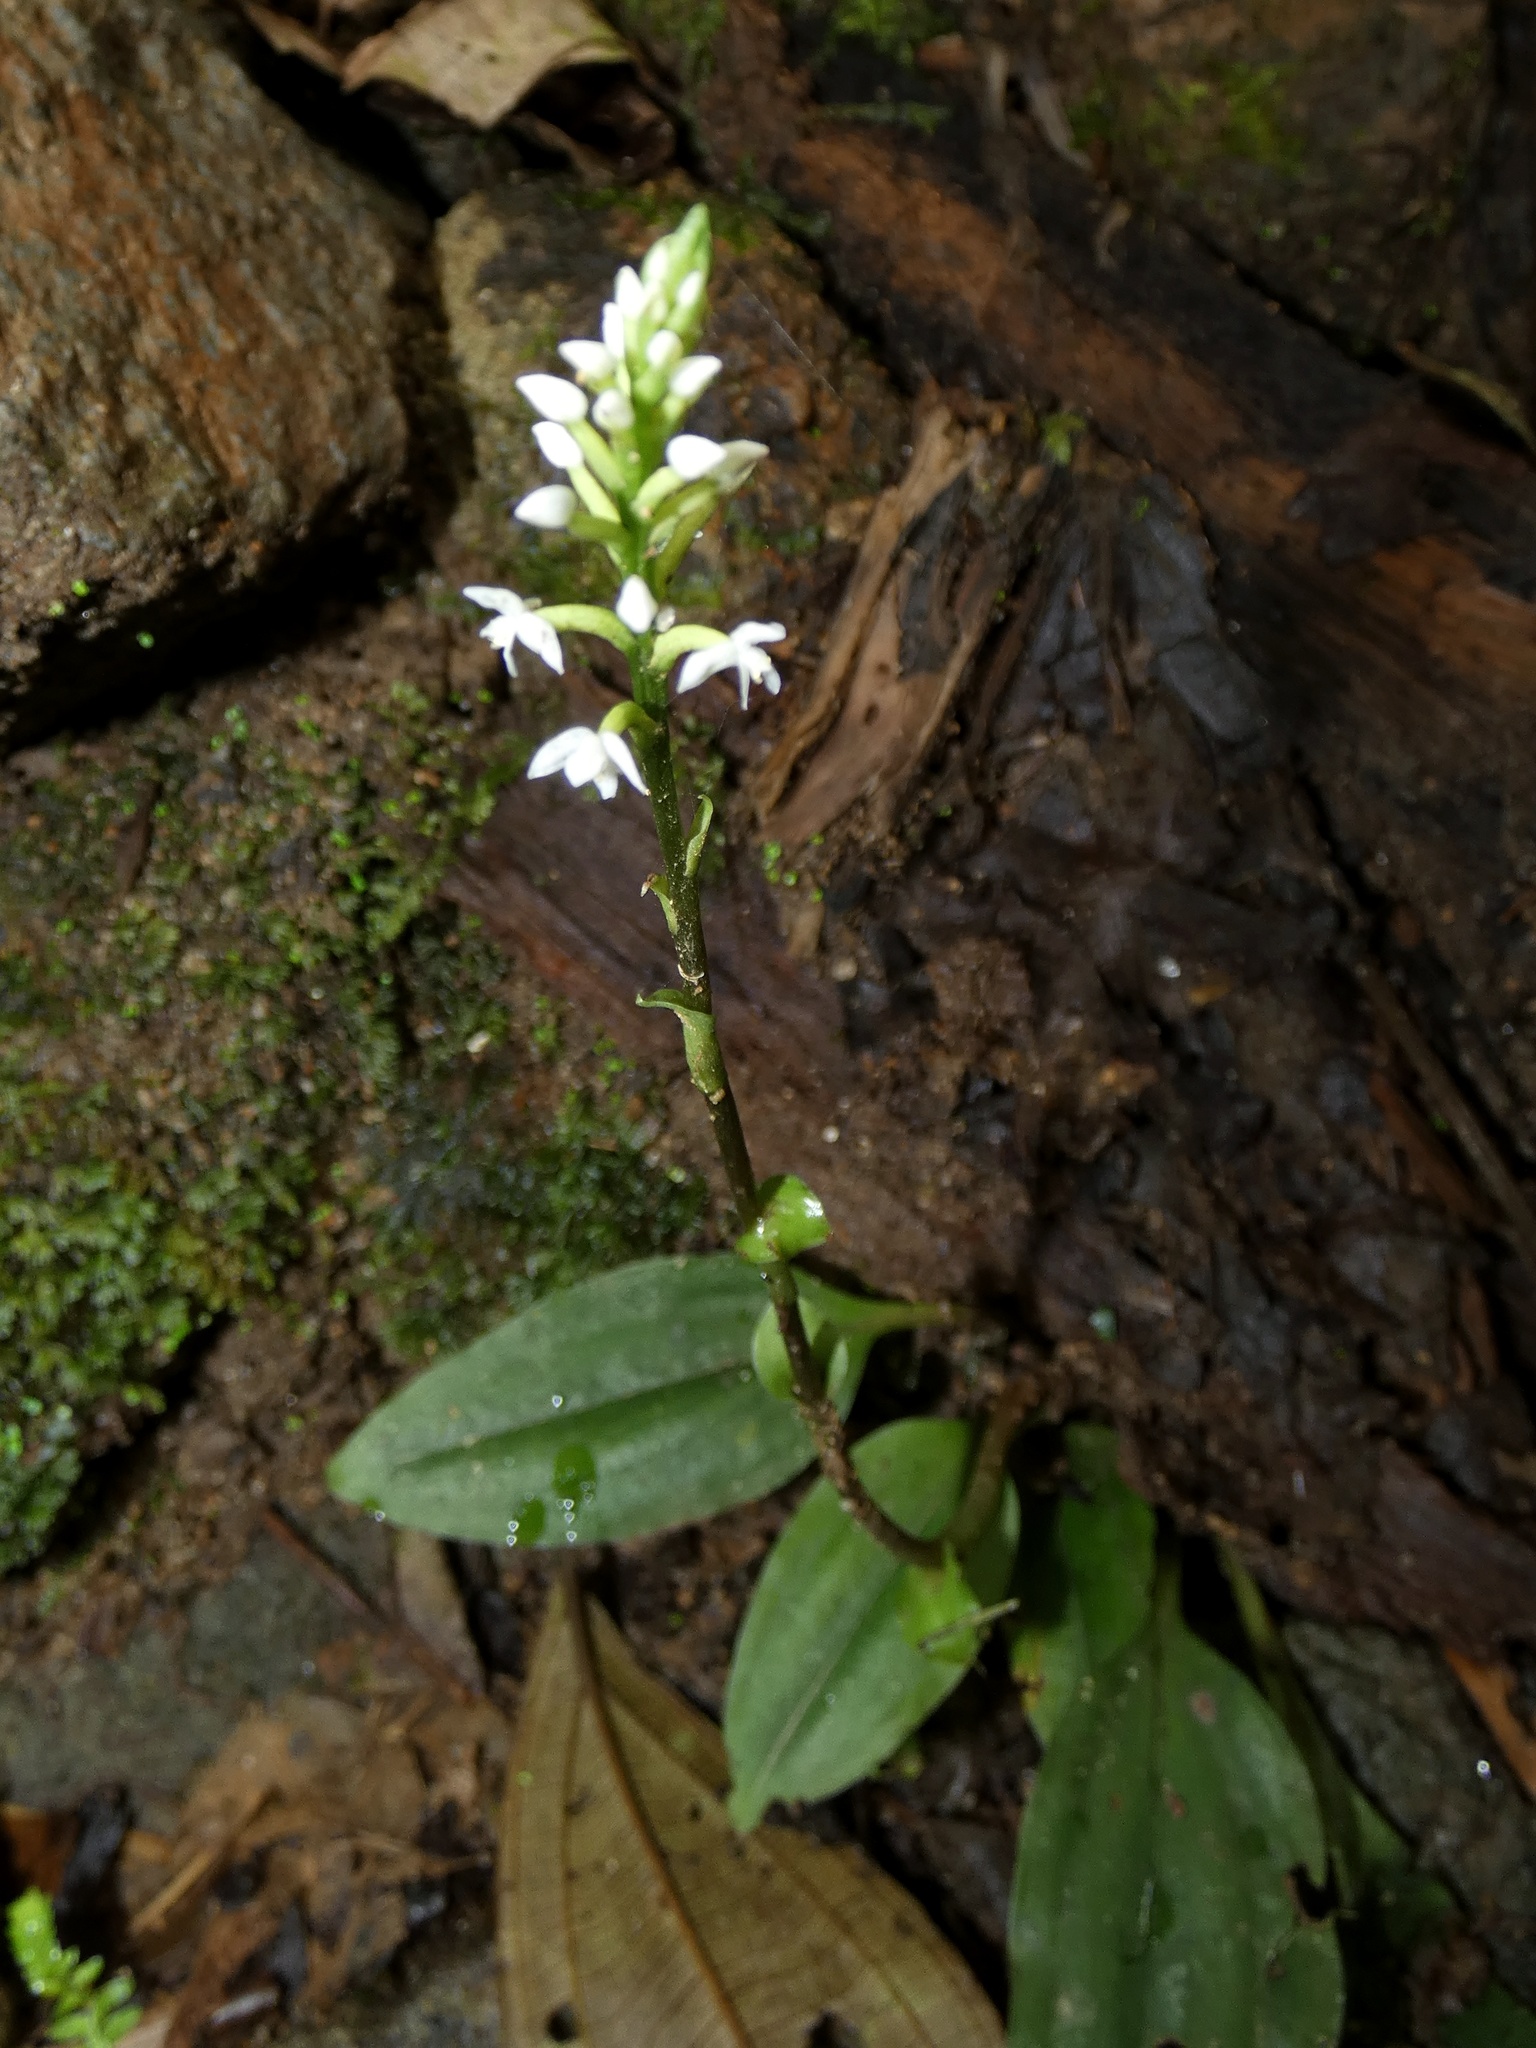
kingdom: Plantae
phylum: Tracheophyta
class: Liliopsida
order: Asparagales
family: Orchidaceae
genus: Cranichis
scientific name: Cranichis muscosa
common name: Cypress-knee helmet orchid
